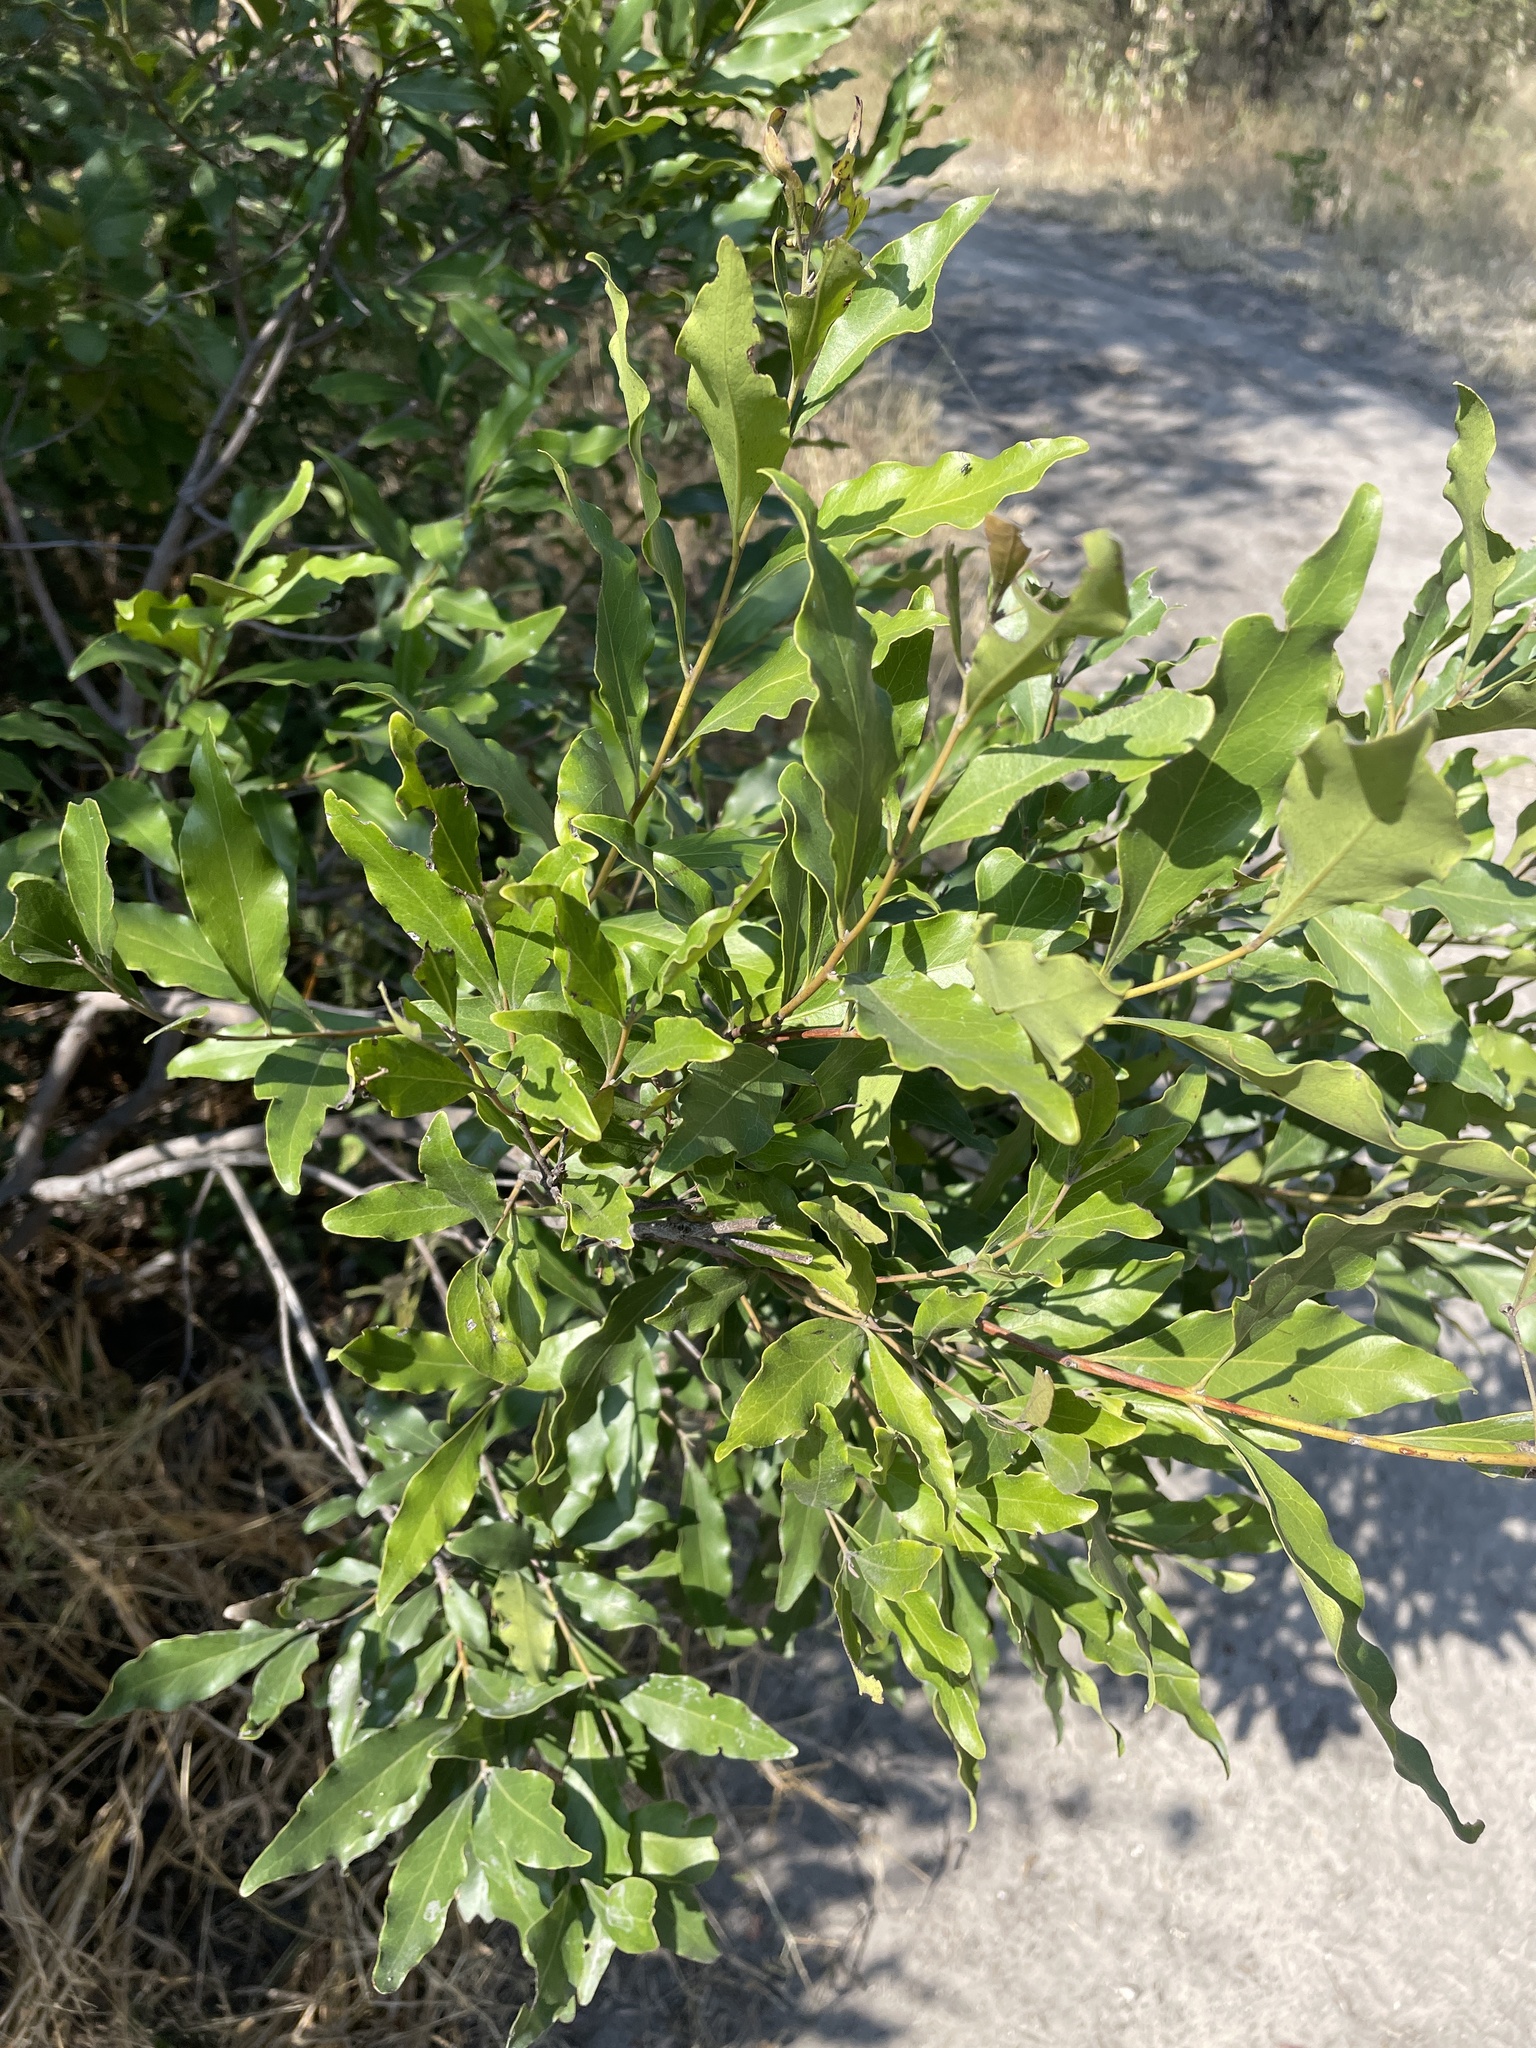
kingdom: Plantae
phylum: Tracheophyta
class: Magnoliopsida
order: Ericales
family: Ebenaceae
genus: Euclea
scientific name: Euclea divinorum
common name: Diamond-leaved euclea
